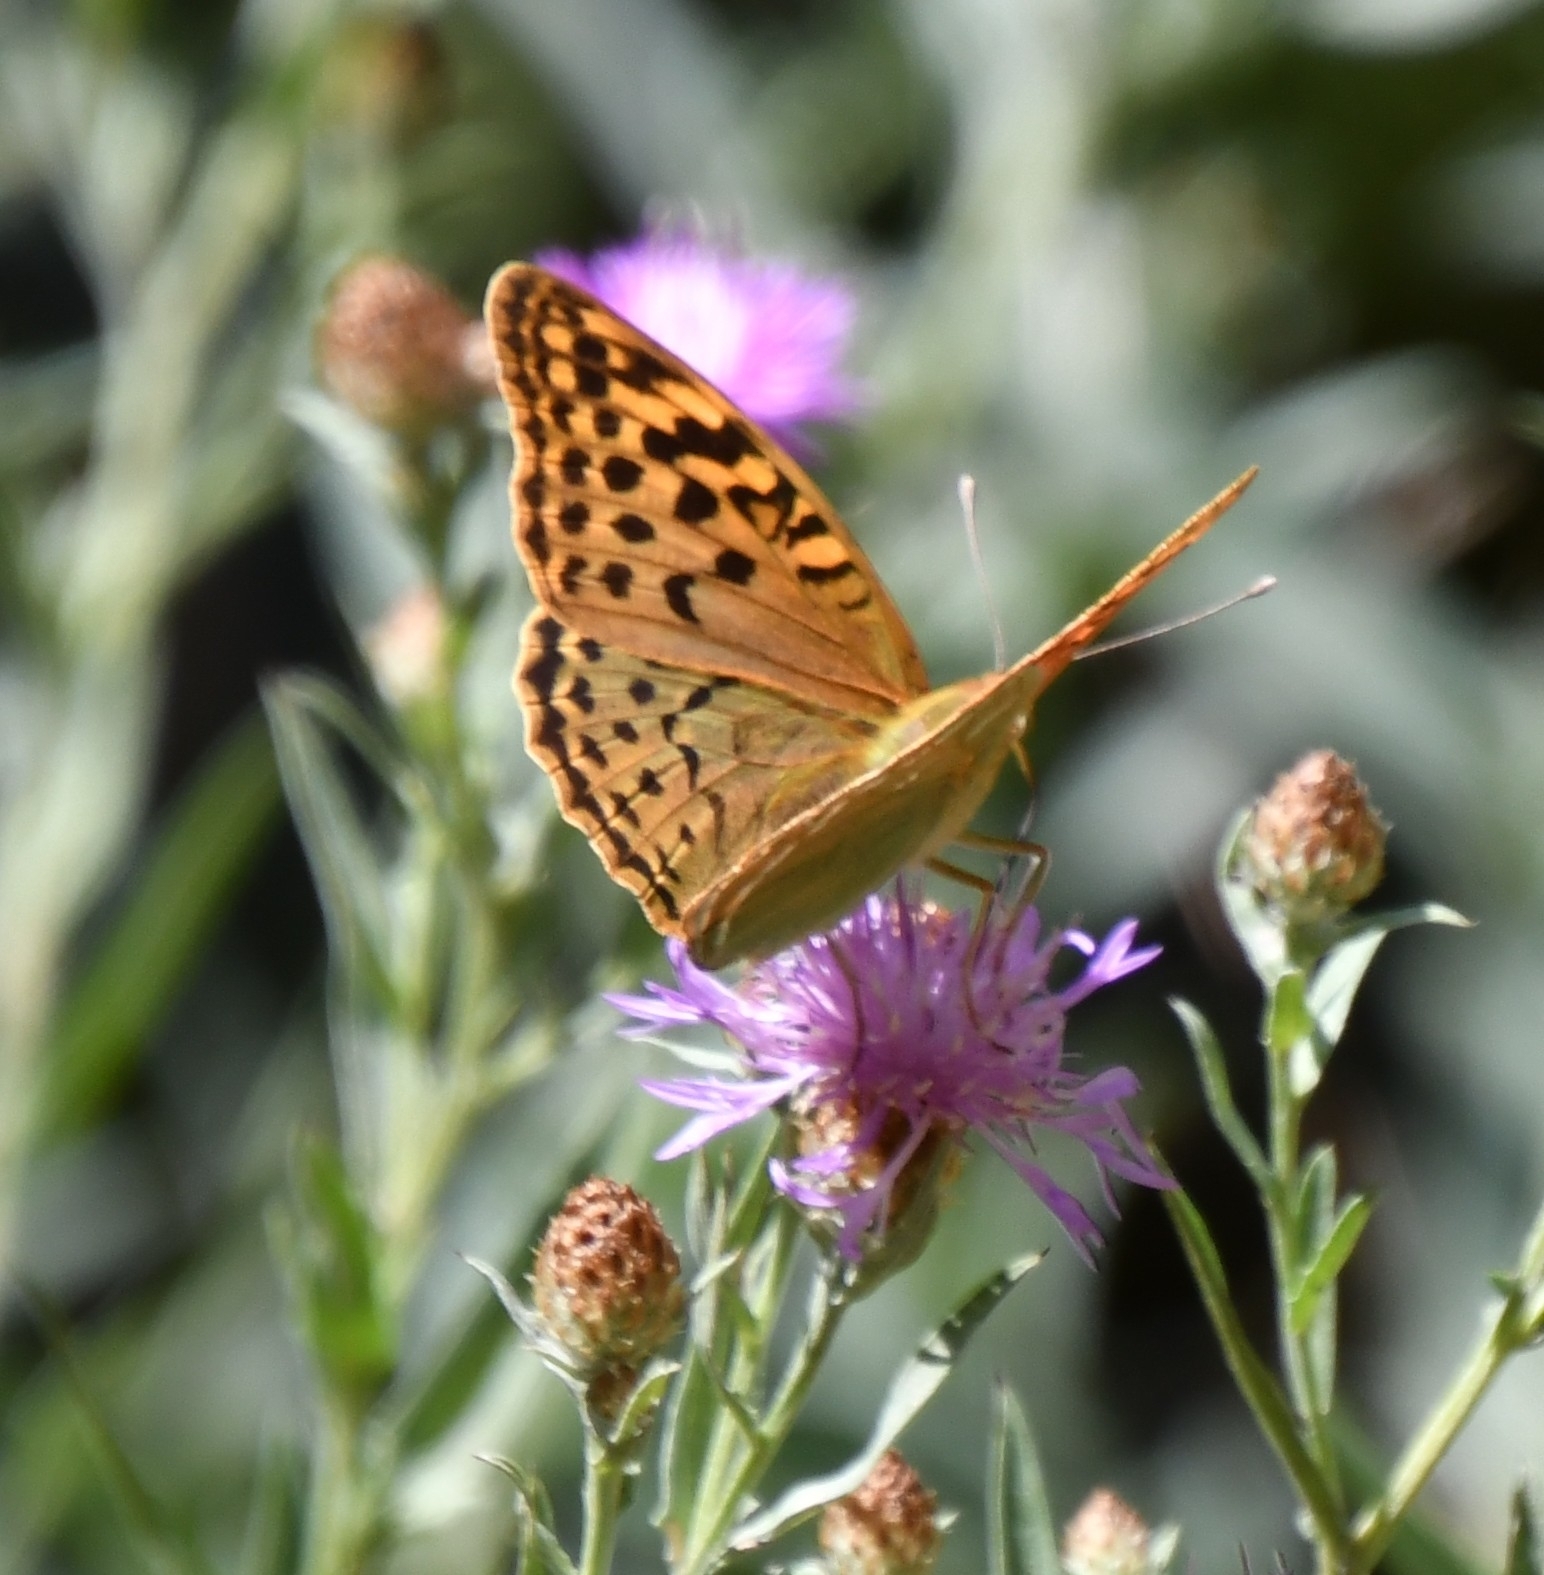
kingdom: Animalia
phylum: Arthropoda
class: Insecta
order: Lepidoptera
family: Nymphalidae
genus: Damora
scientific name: Damora pandora
